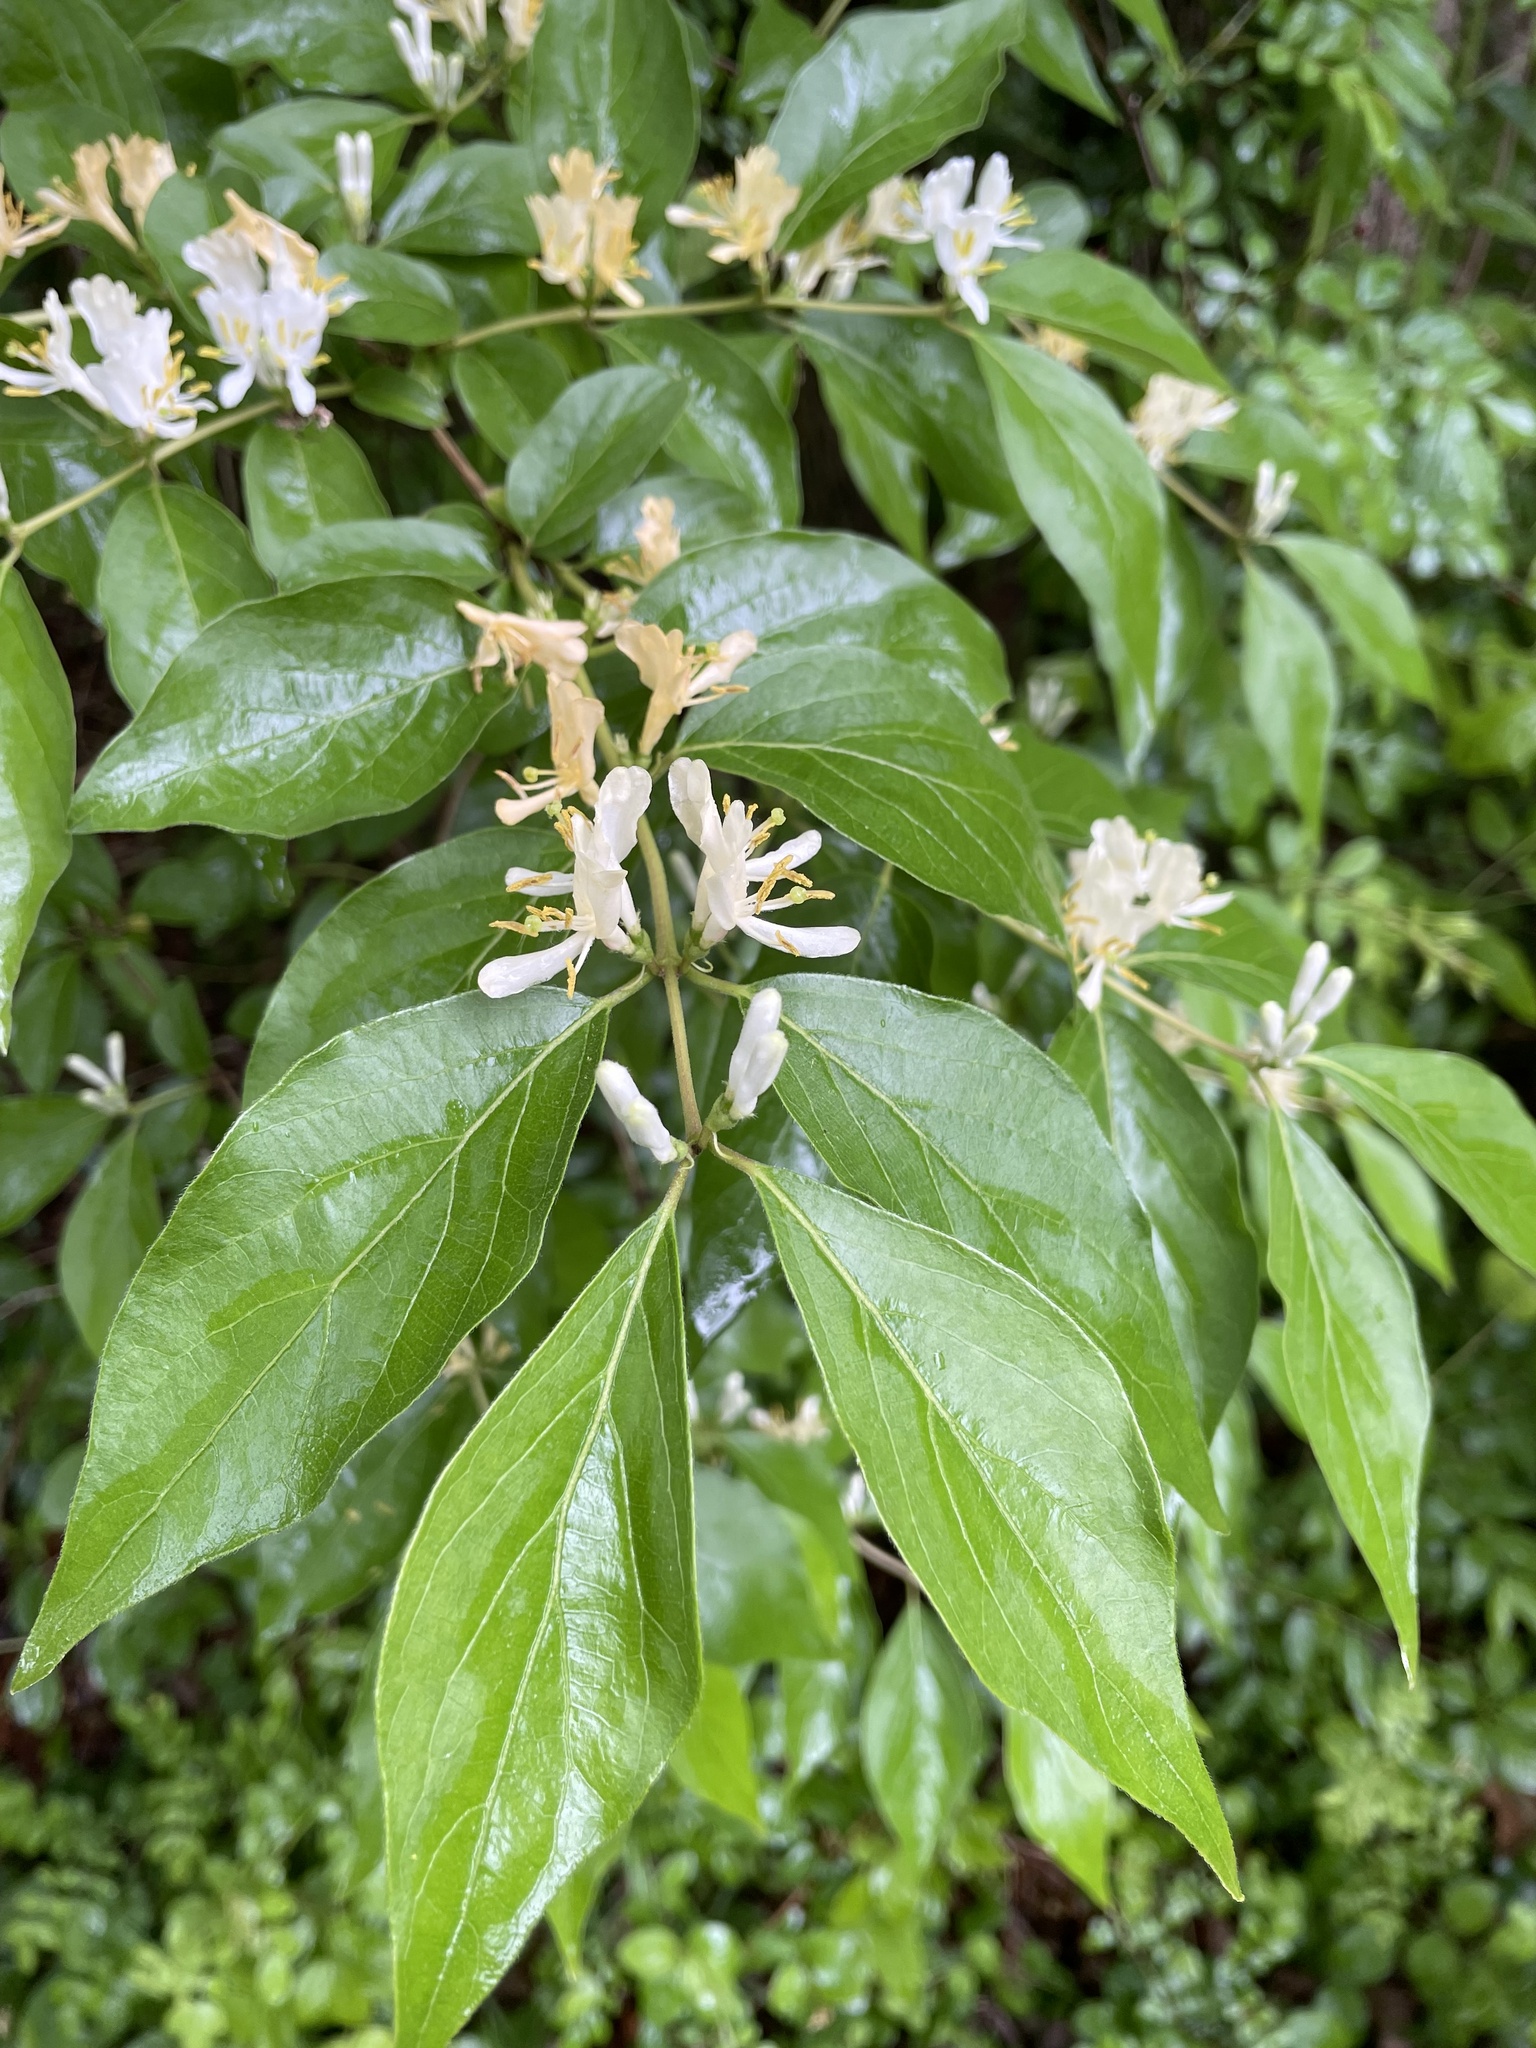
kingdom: Plantae
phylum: Tracheophyta
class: Magnoliopsida
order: Dipsacales
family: Caprifoliaceae
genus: Lonicera
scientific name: Lonicera maackii
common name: Amur honeysuckle
